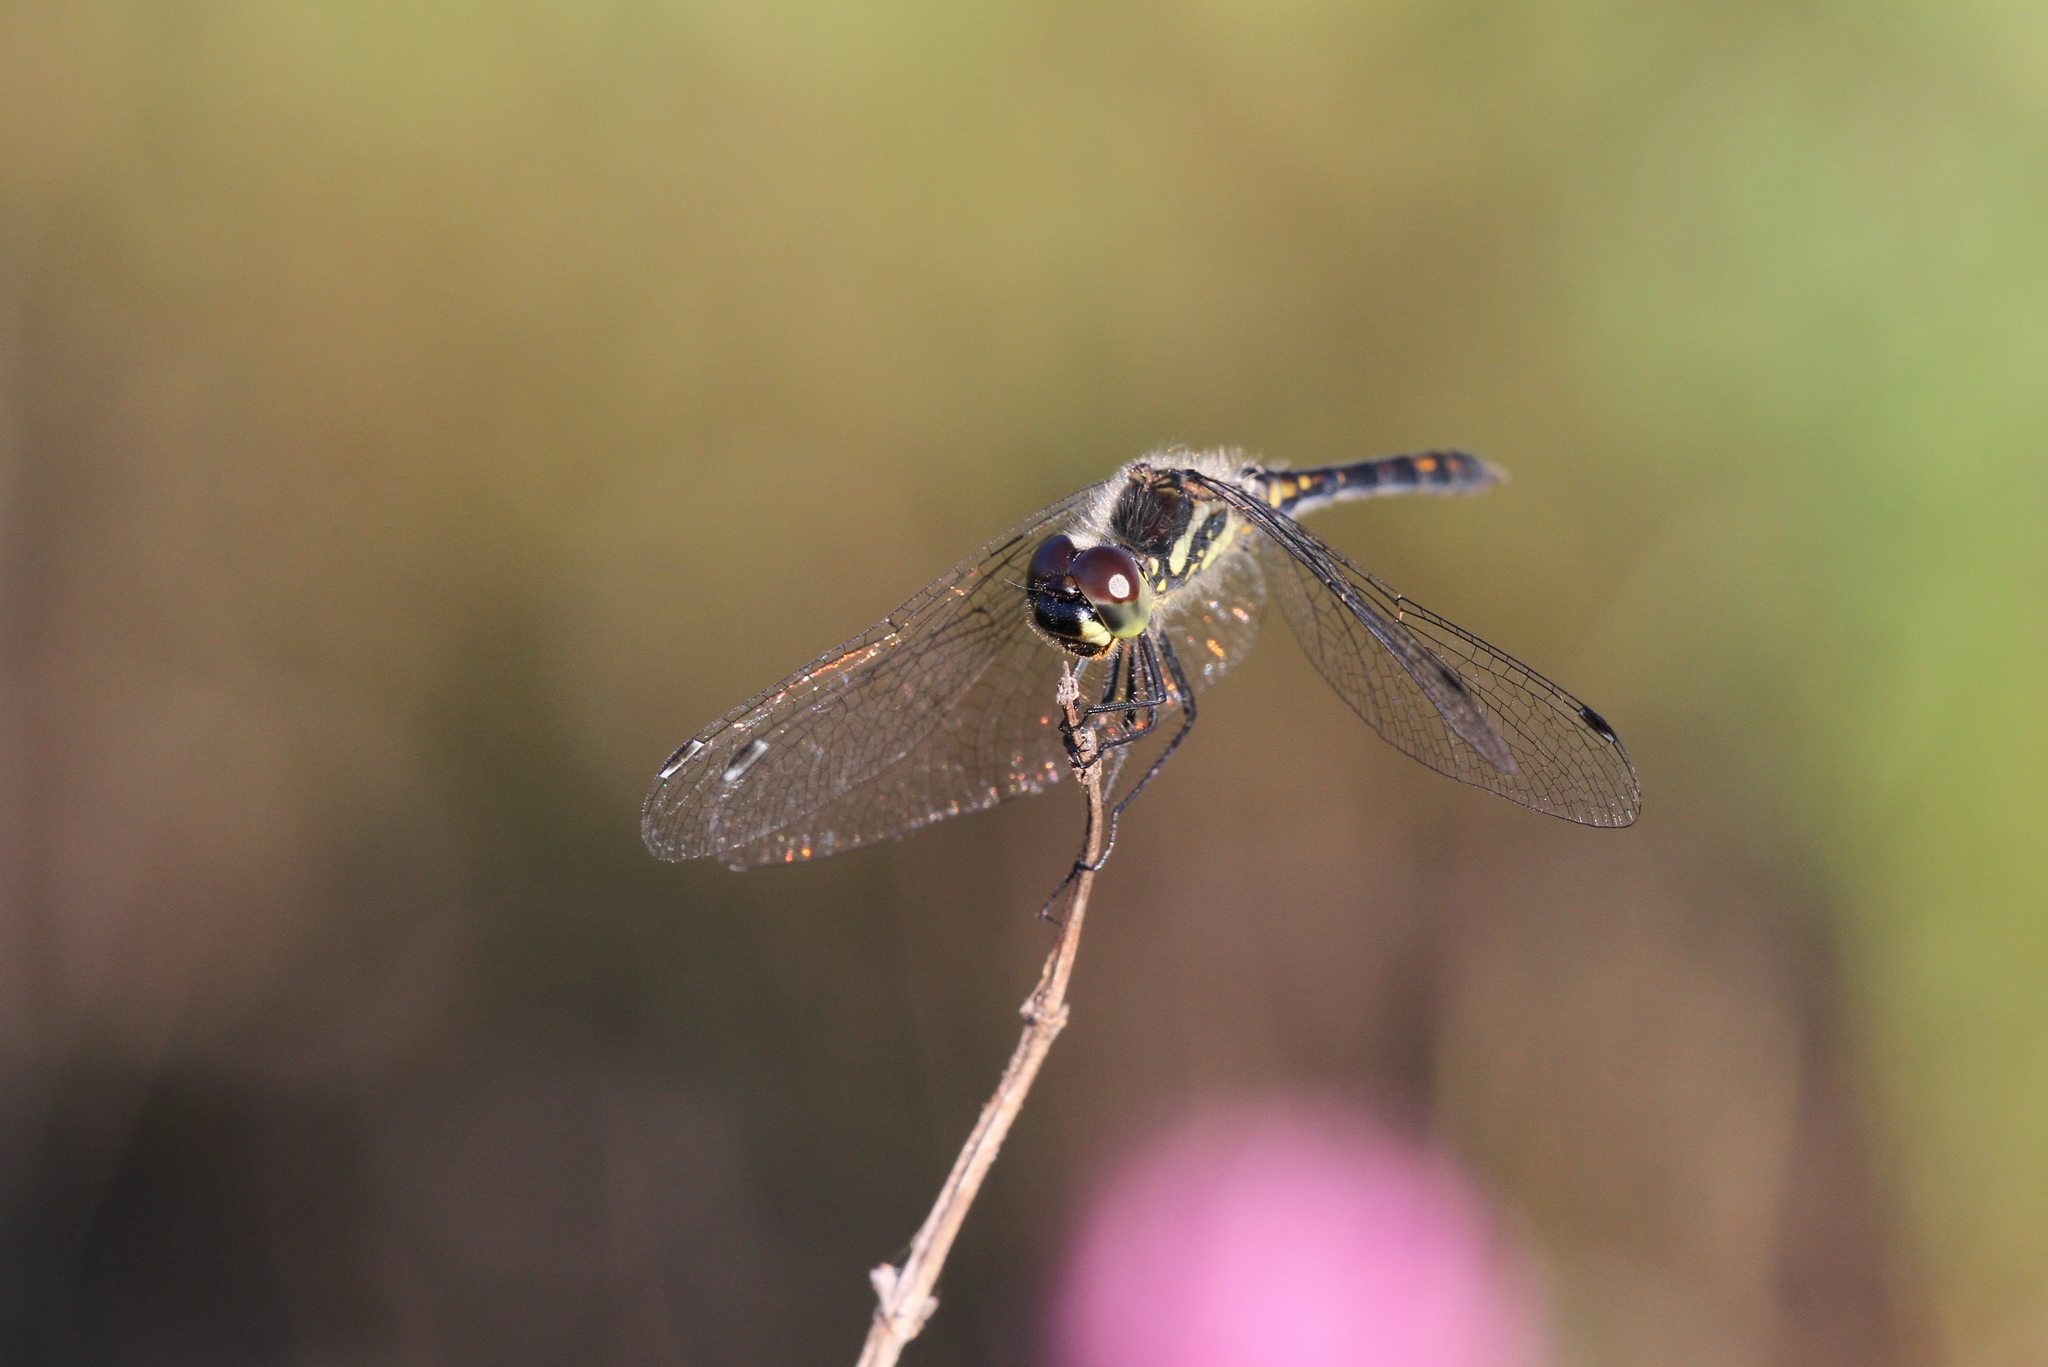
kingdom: Animalia
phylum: Arthropoda
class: Insecta
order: Odonata
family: Libellulidae
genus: Sympetrum
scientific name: Sympetrum danae
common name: Black darter
